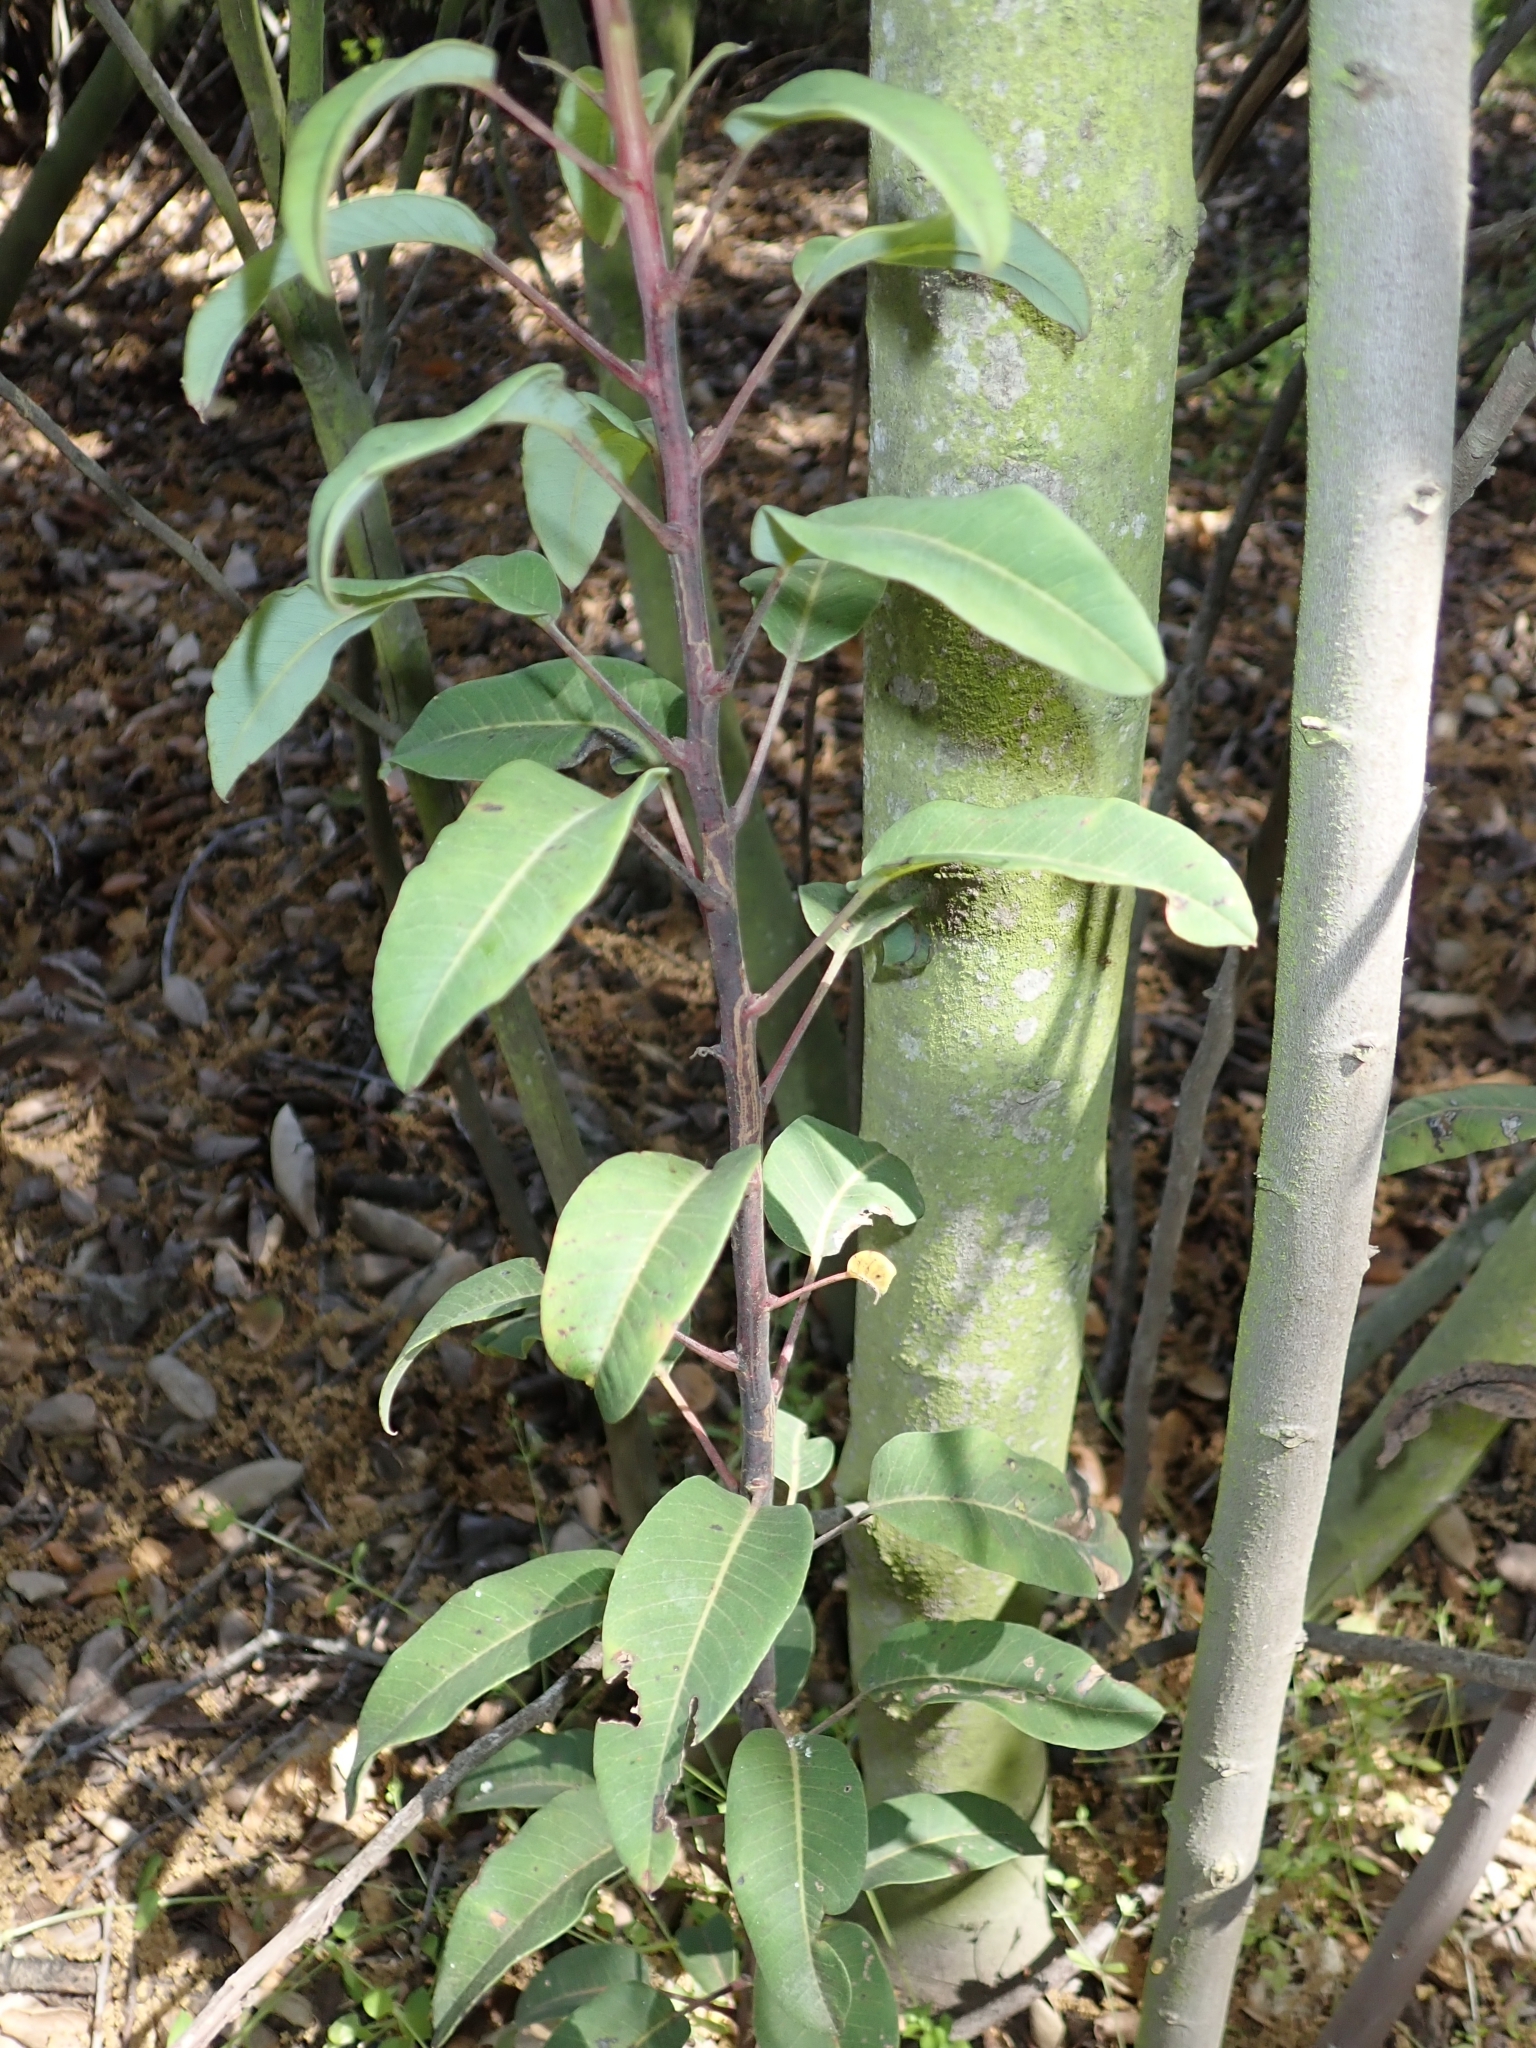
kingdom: Plantae
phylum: Tracheophyta
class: Magnoliopsida
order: Sapindales
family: Anacardiaceae
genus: Malosma
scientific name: Malosma laurina
